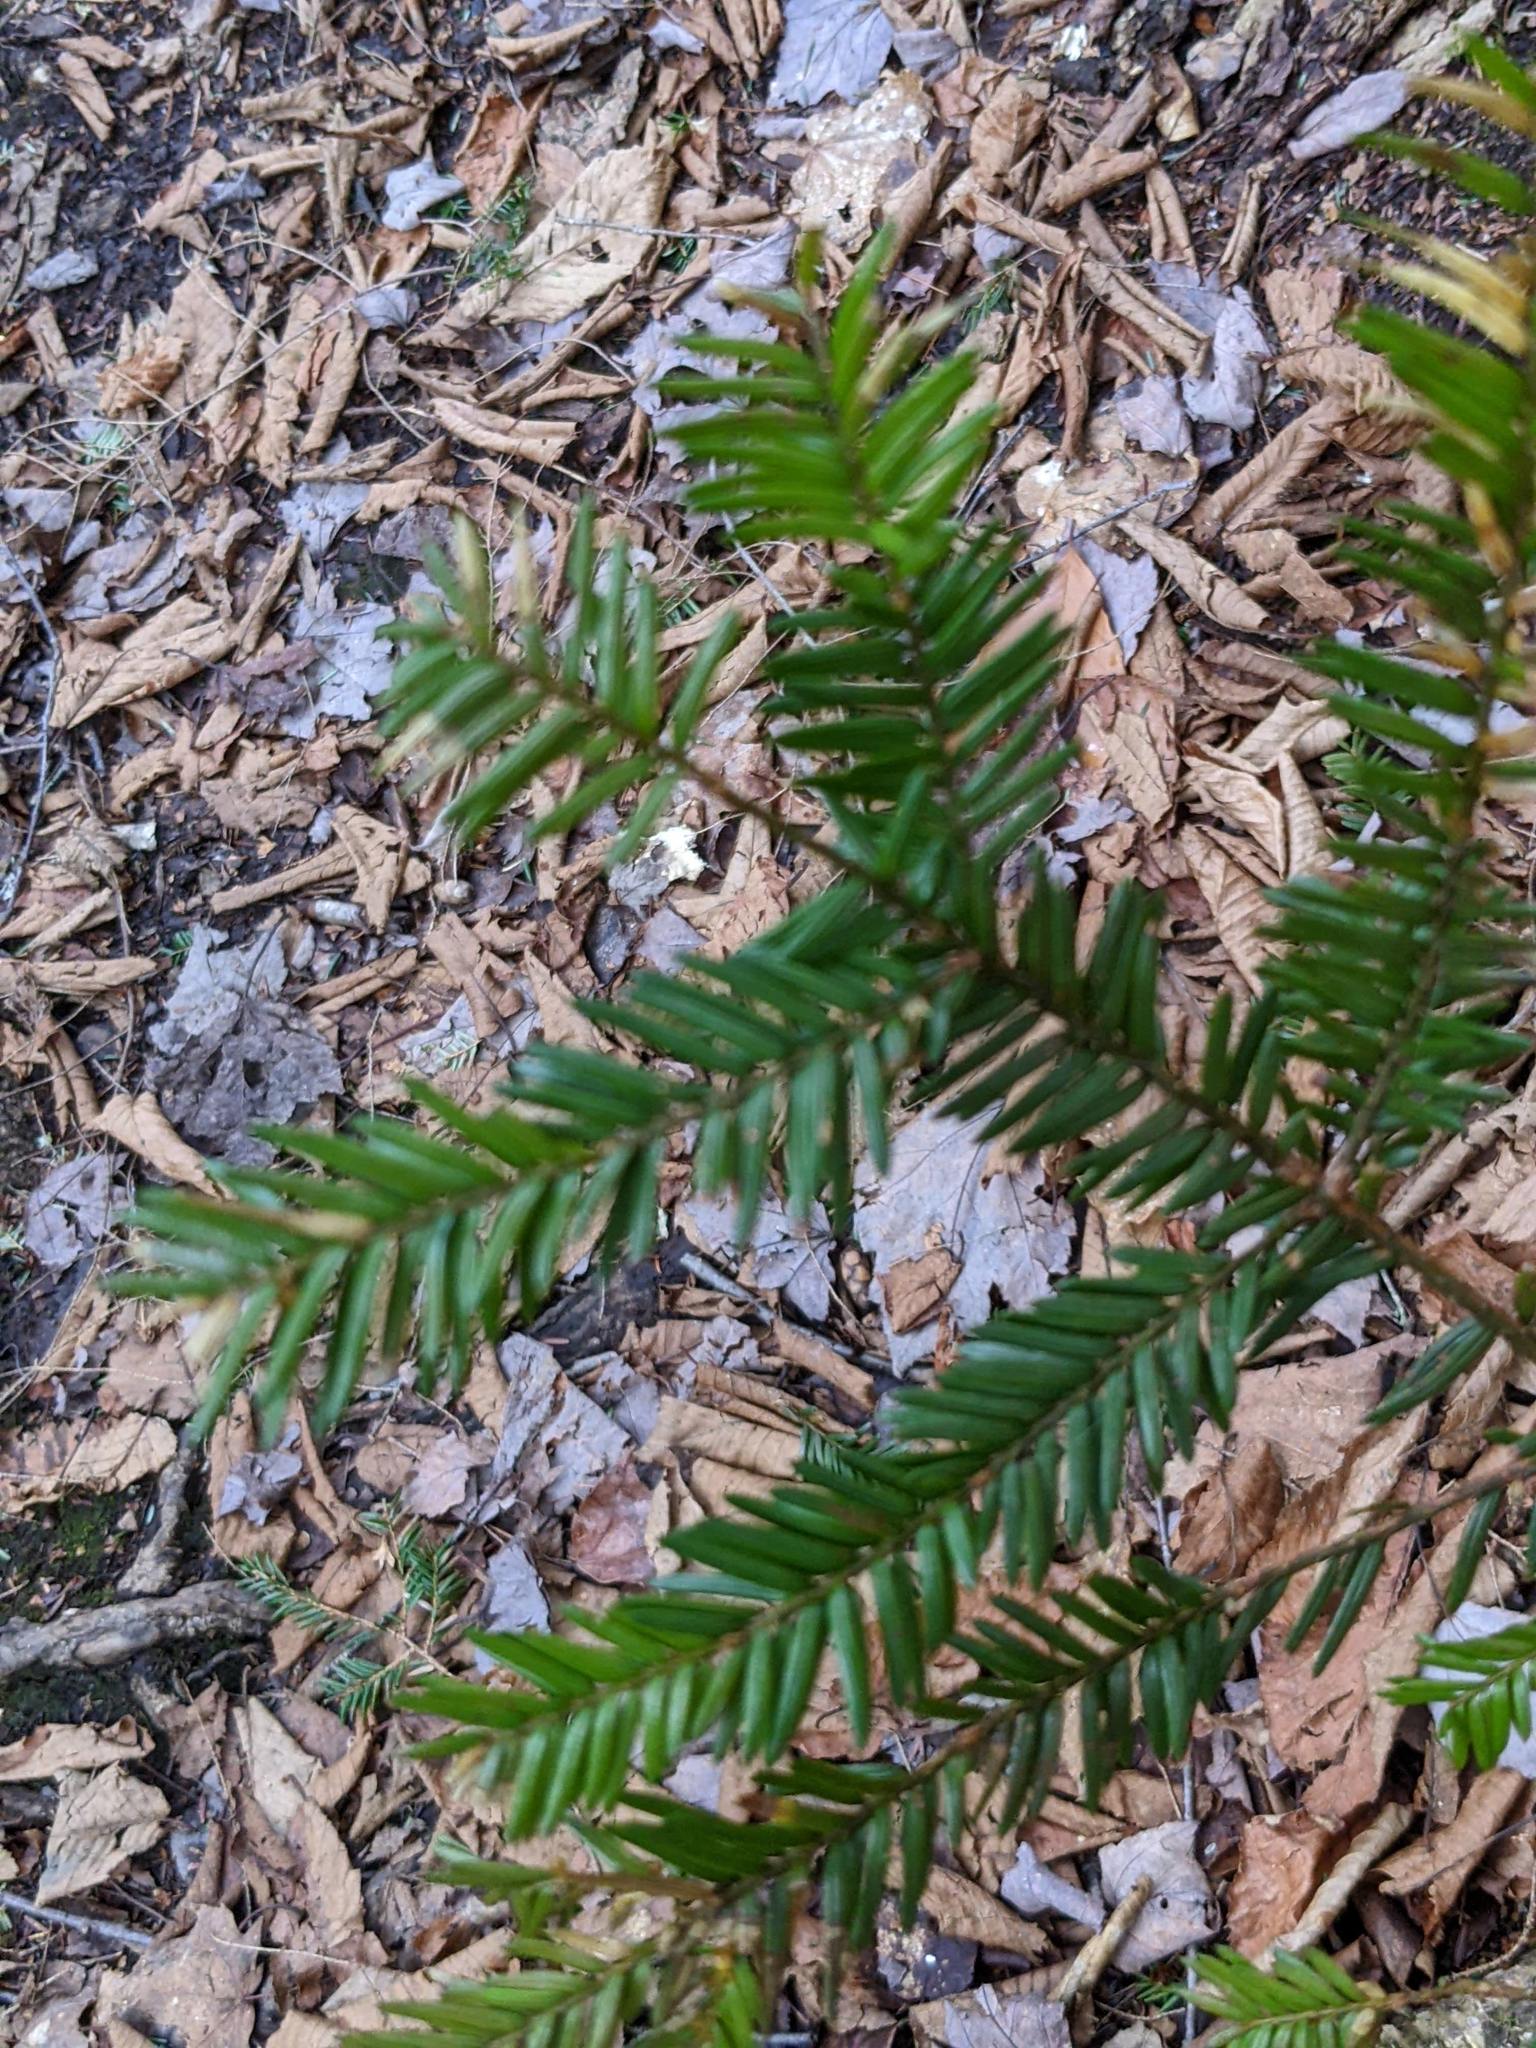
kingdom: Plantae
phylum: Tracheophyta
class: Pinopsida
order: Pinales
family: Taxaceae
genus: Taxus
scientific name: Taxus canadensis
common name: American yew
